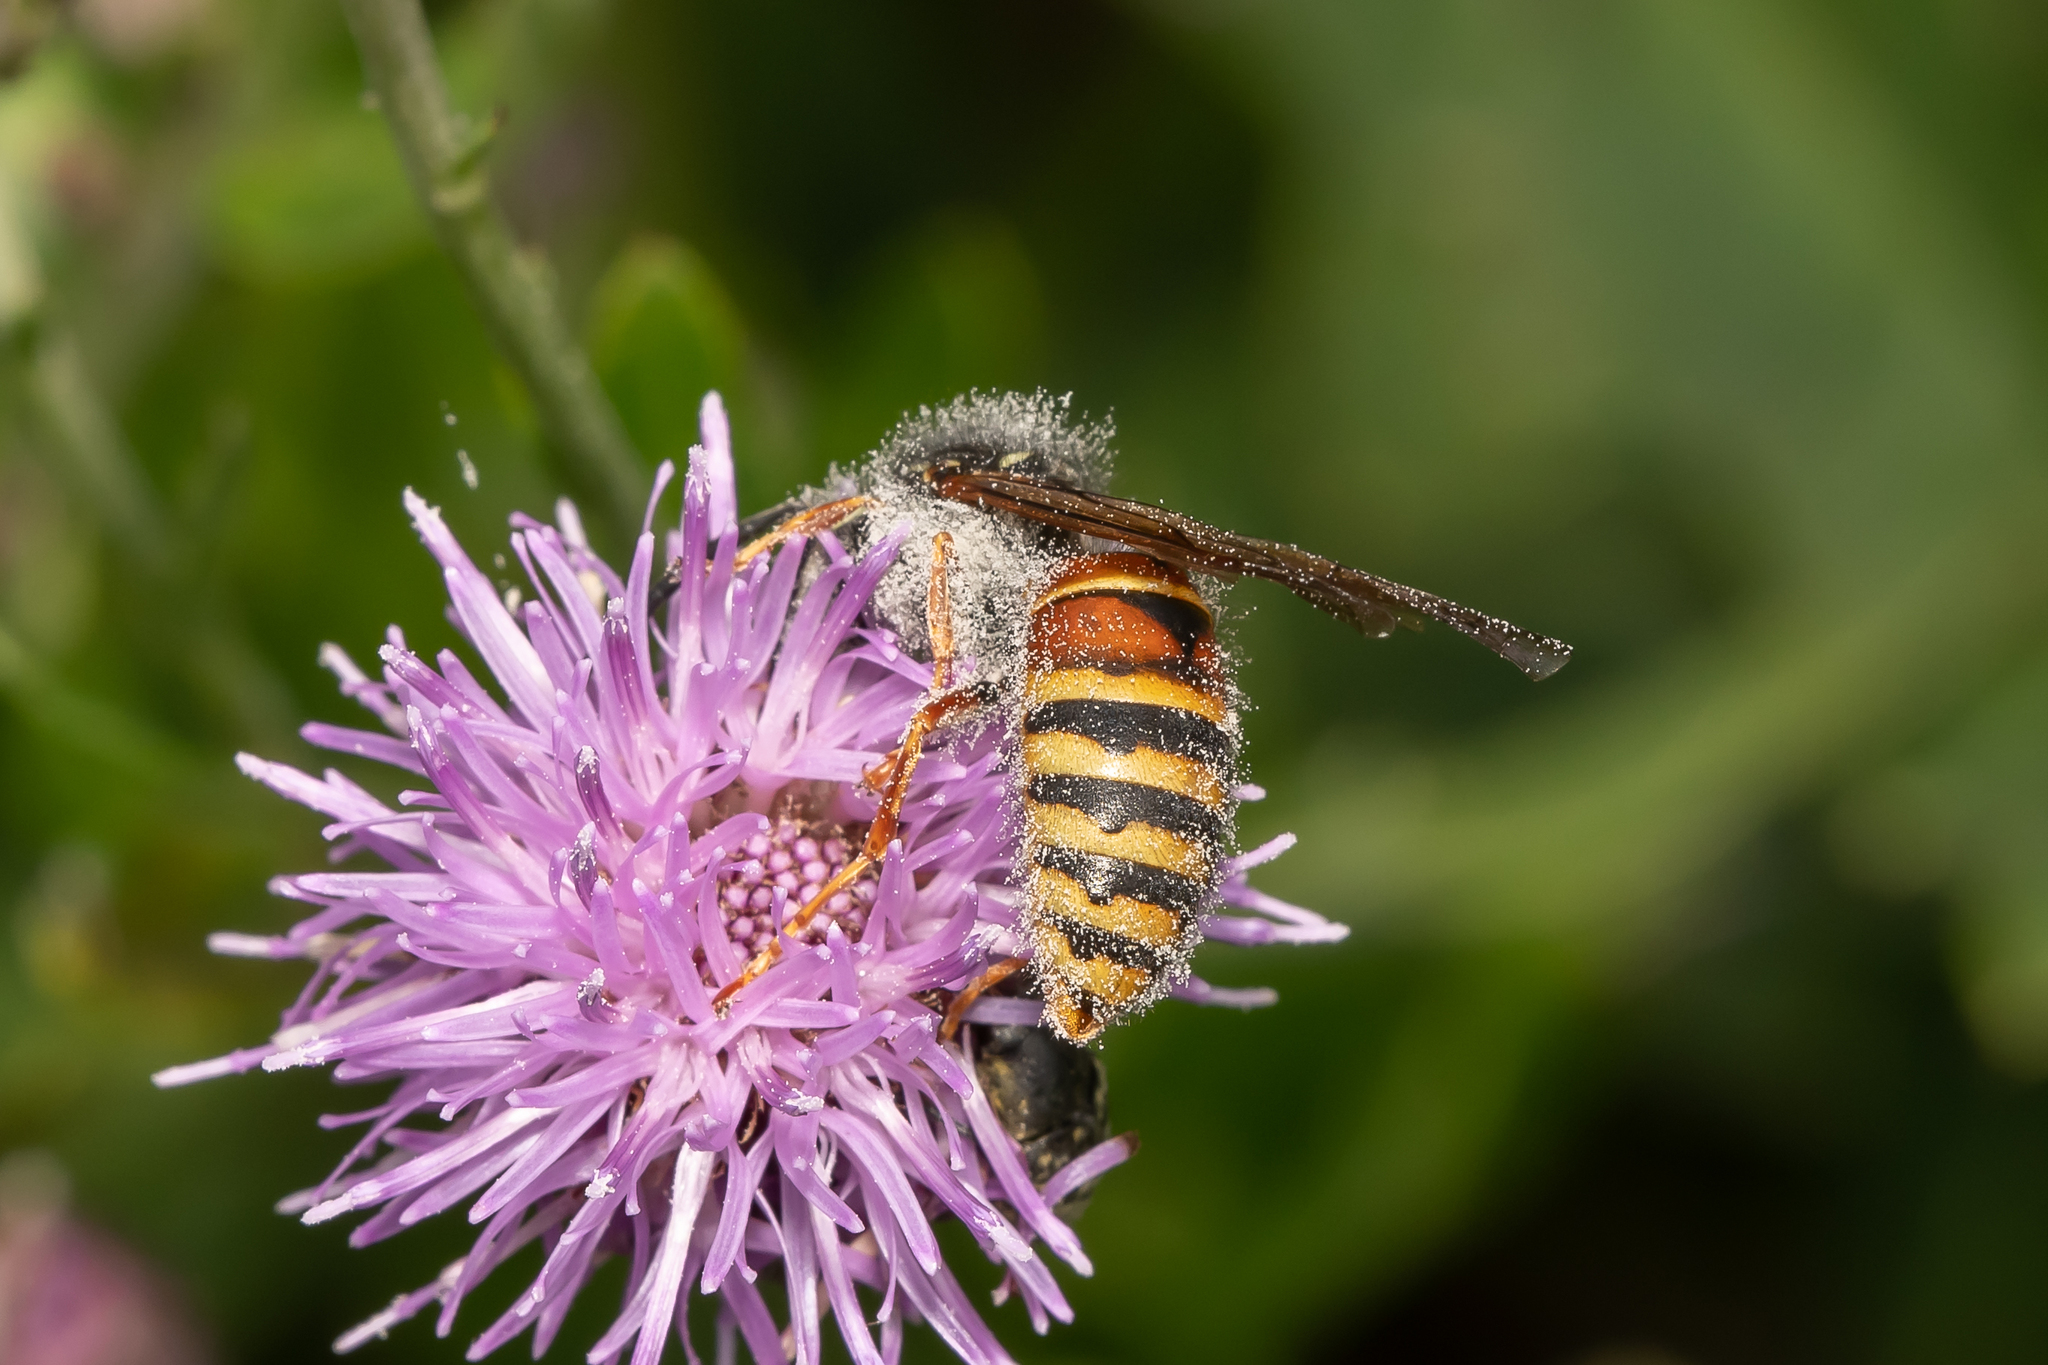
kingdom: Animalia
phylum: Arthropoda
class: Insecta
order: Hymenoptera
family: Vespidae
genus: Vespula
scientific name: Vespula rufa
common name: Red wasp
